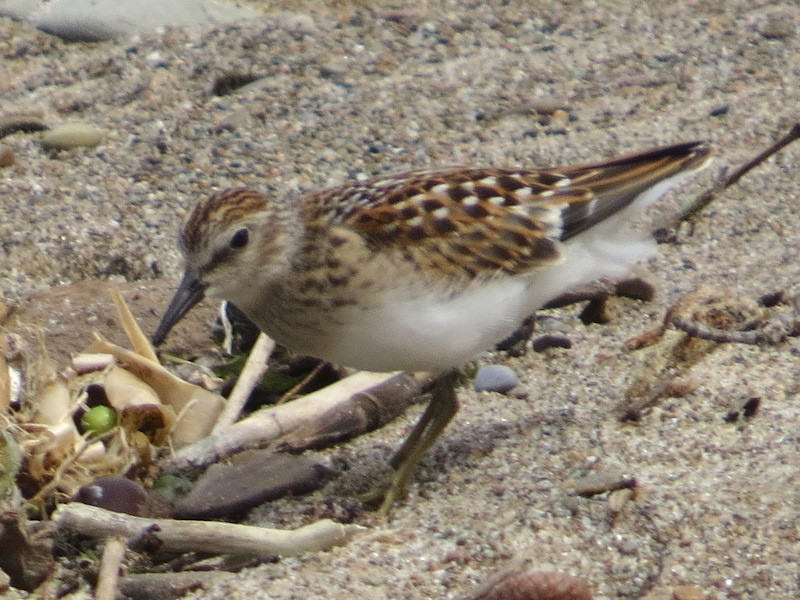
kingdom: Animalia
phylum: Chordata
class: Aves
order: Charadriiformes
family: Scolopacidae
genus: Calidris
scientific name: Calidris minutilla
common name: Least sandpiper
